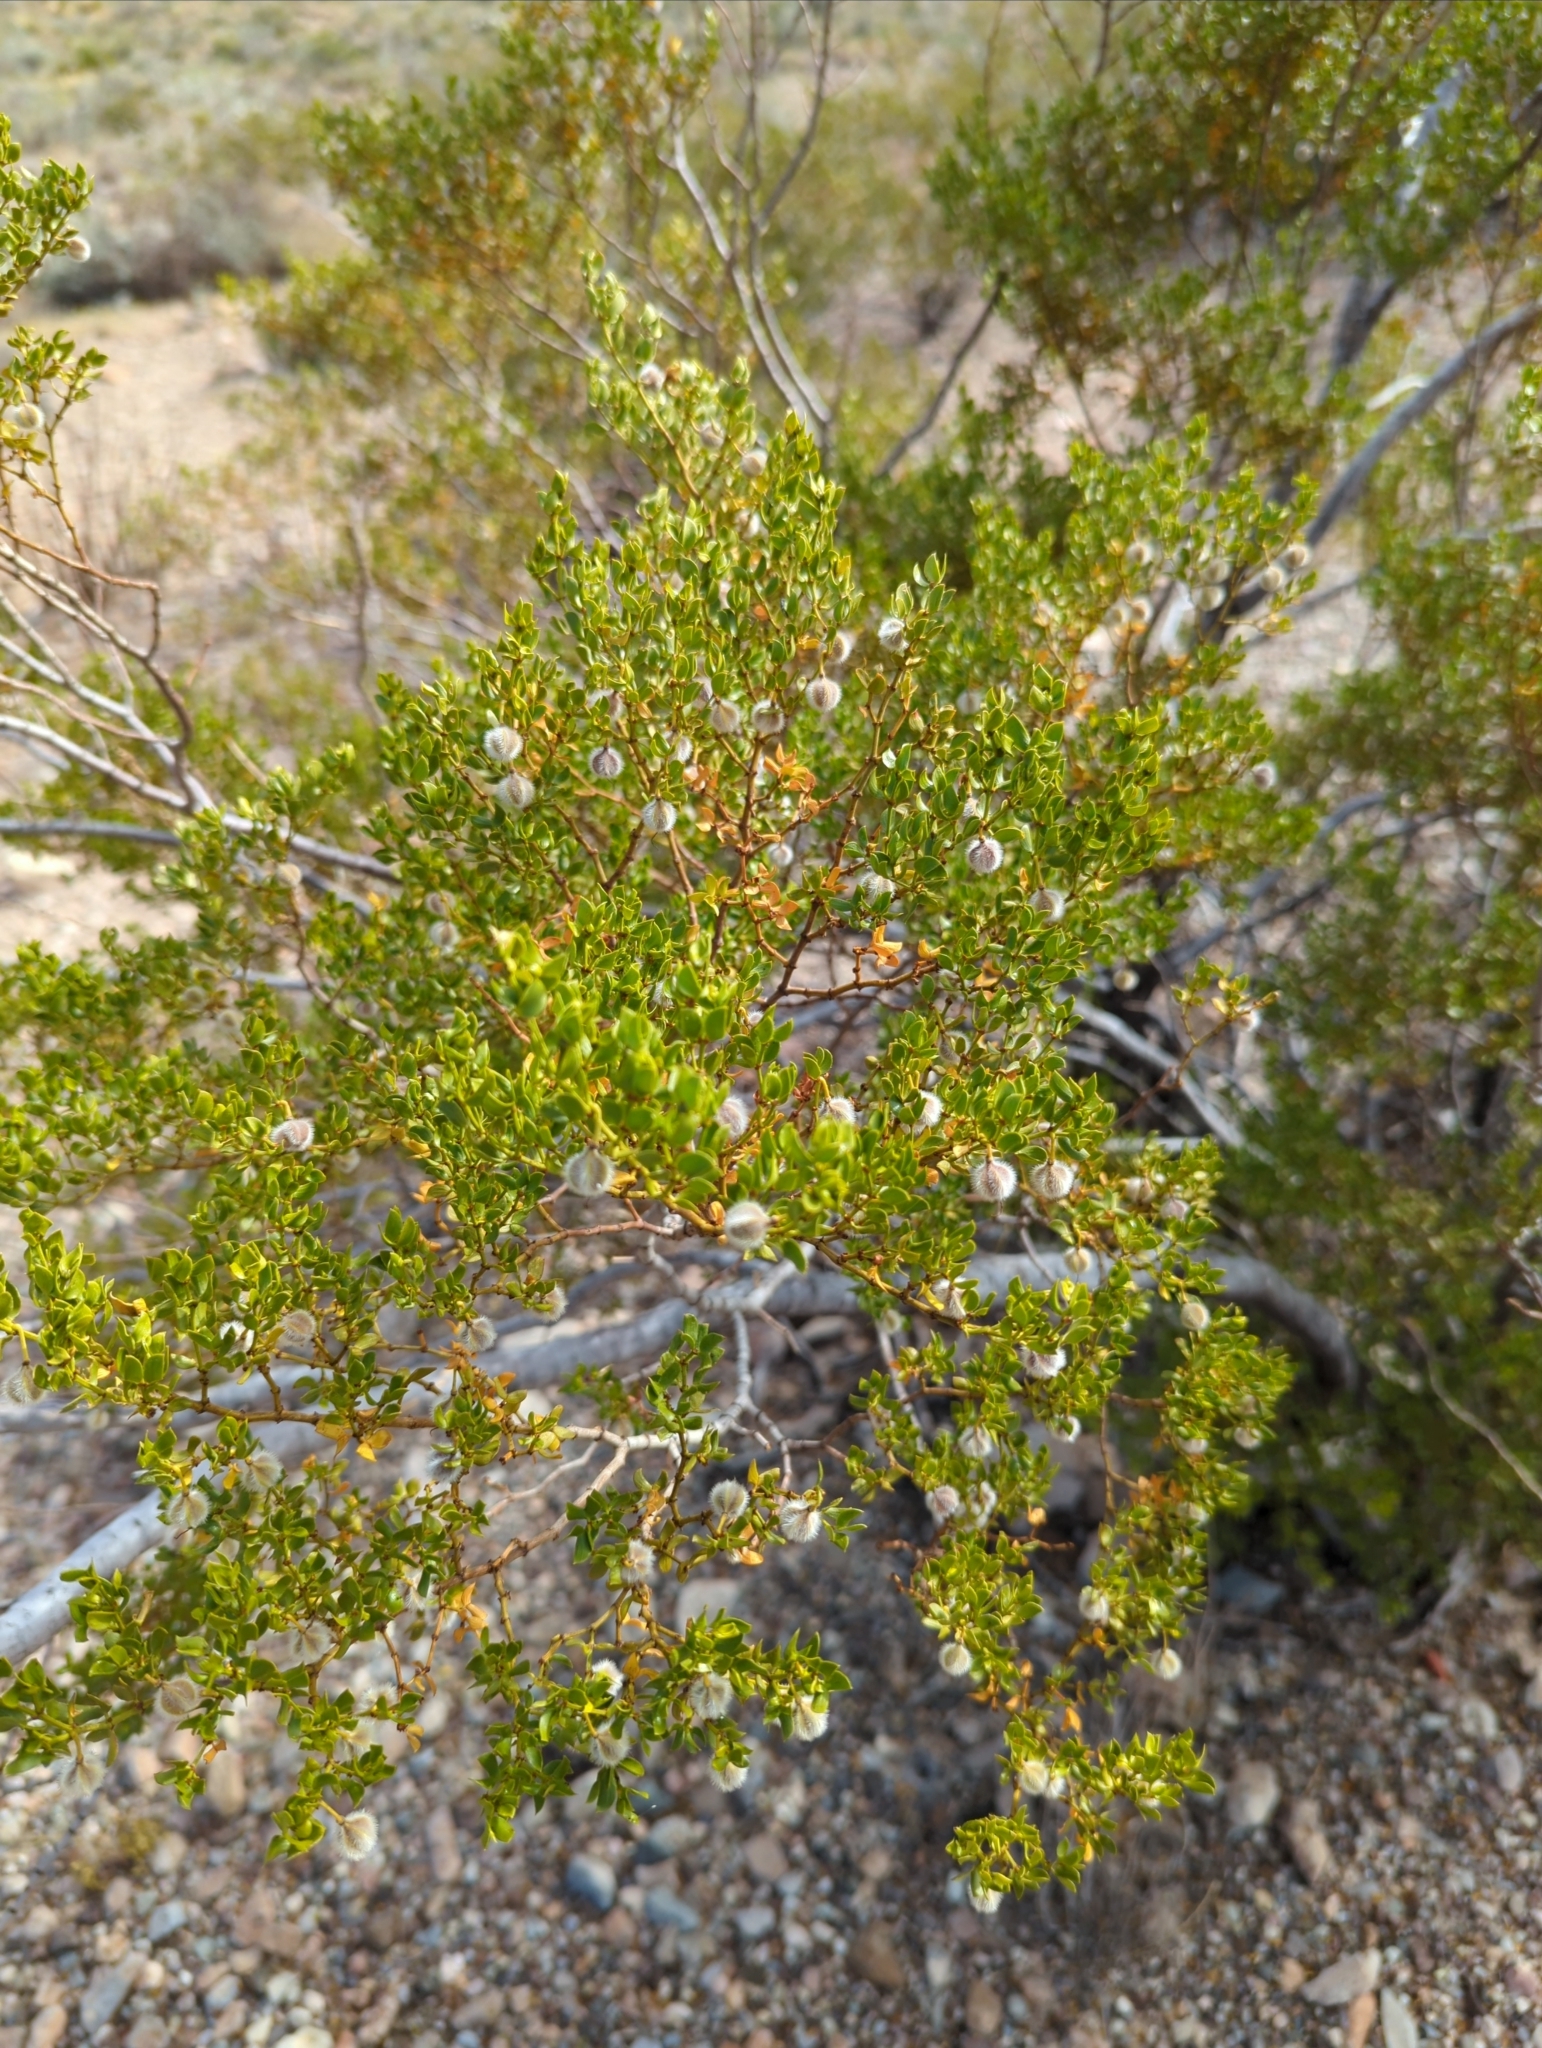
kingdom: Plantae
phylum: Tracheophyta
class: Magnoliopsida
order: Zygophyllales
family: Zygophyllaceae
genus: Larrea
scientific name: Larrea tridentata
